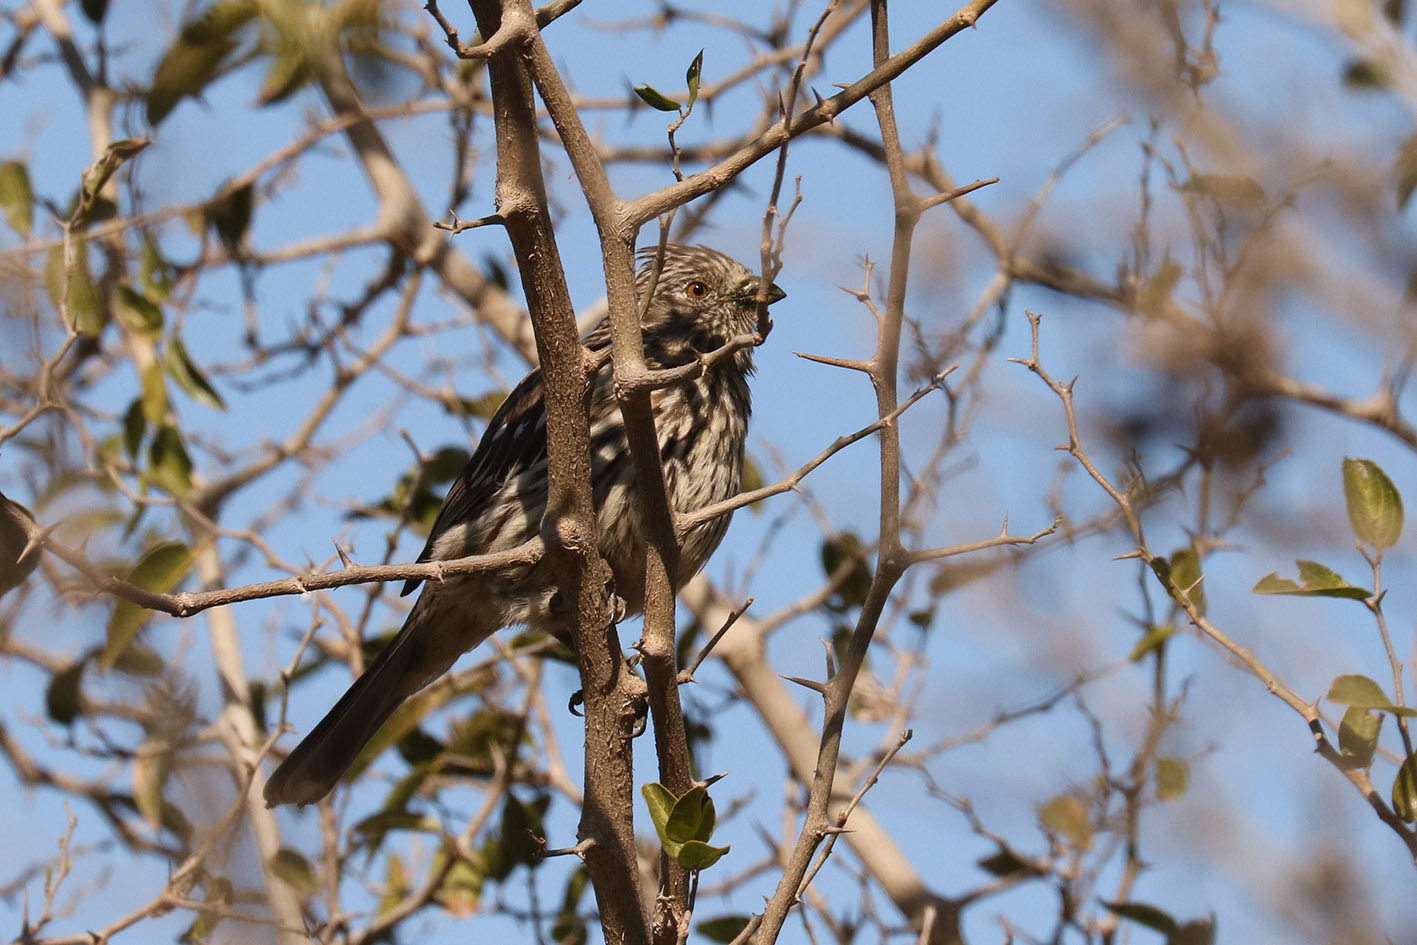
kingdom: Animalia
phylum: Chordata
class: Aves
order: Passeriformes
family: Cotingidae
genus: Phytotoma
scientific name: Phytotoma rutila
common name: White-tipped plantcutter
